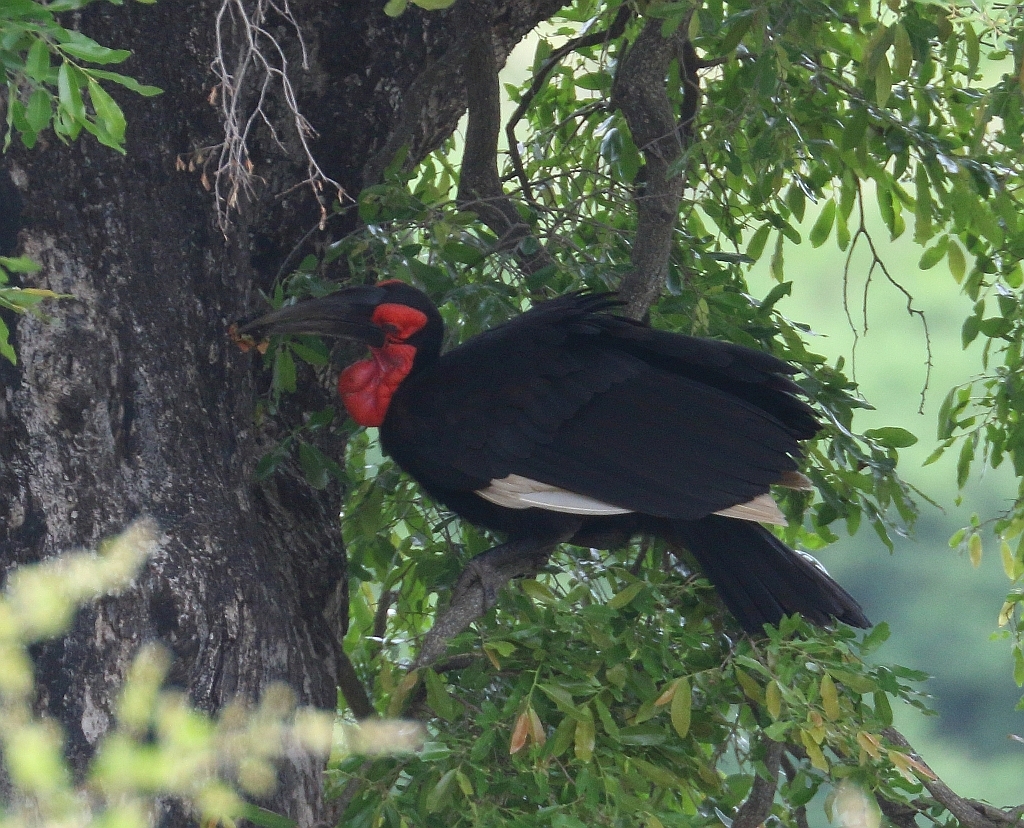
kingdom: Animalia
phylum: Chordata
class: Aves
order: Bucerotiformes
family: Bucorvidae
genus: Bucorvus
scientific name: Bucorvus leadbeateri
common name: Southern ground-hornbill
